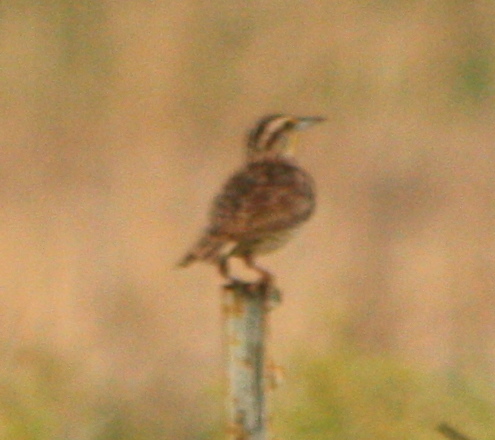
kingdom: Animalia
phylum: Chordata
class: Aves
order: Passeriformes
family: Icteridae
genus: Sturnella
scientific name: Sturnella neglecta
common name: Western meadowlark
